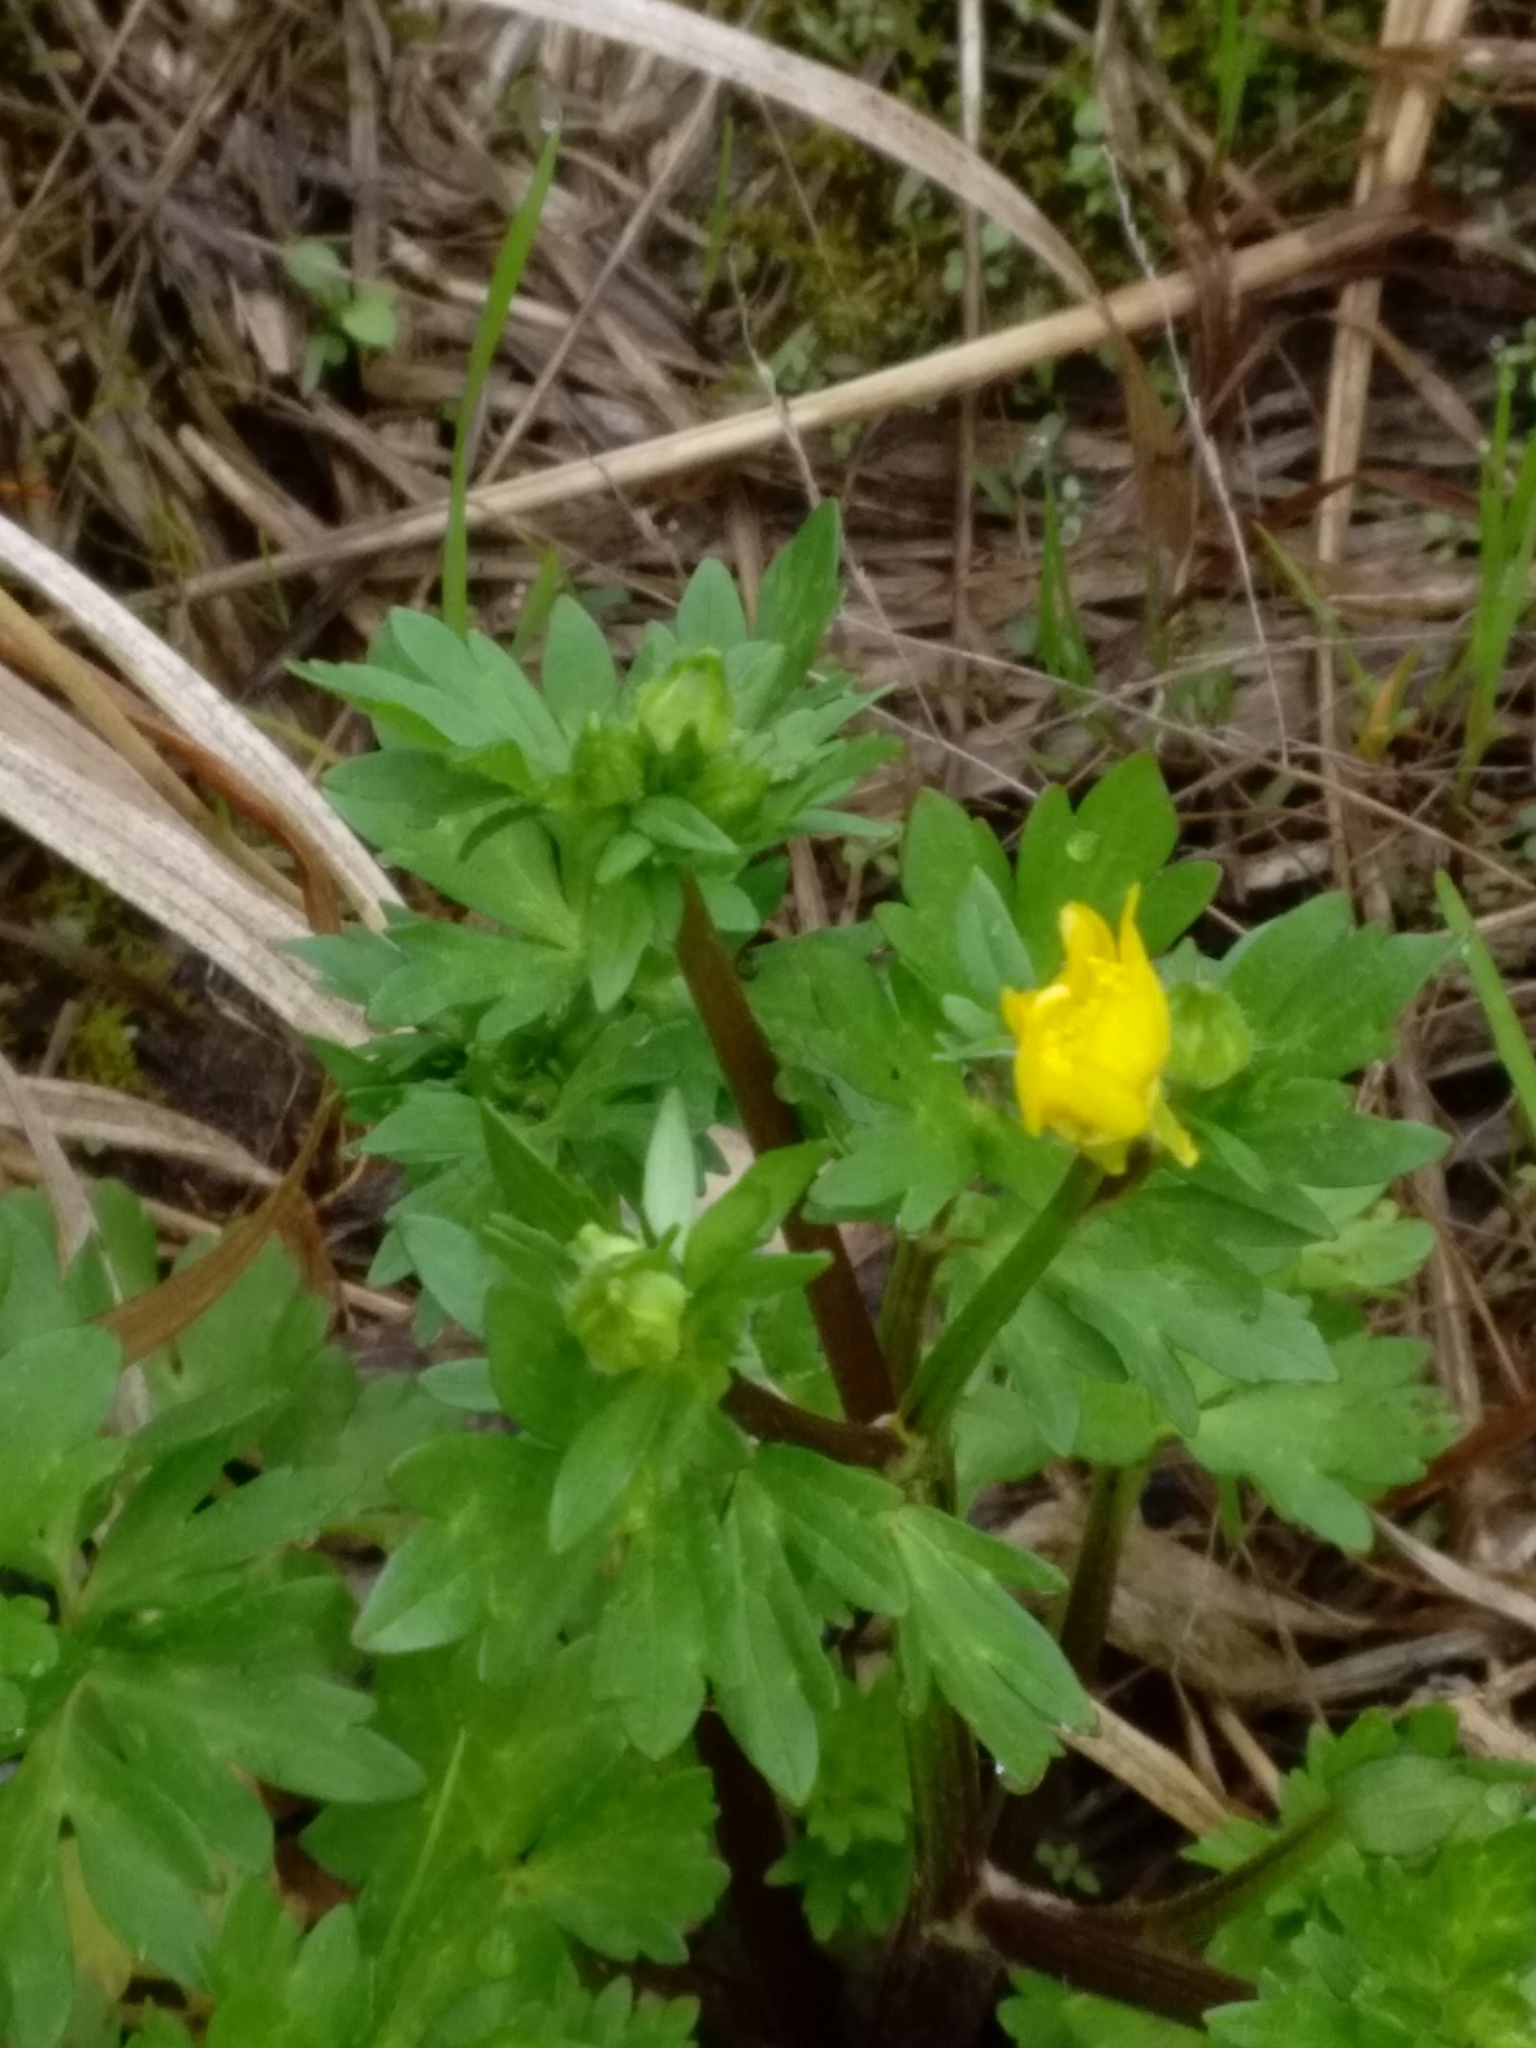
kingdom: Plantae
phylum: Tracheophyta
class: Magnoliopsida
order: Ranunculales
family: Ranunculaceae
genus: Ranunculus
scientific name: Ranunculus muricatus
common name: Rough-fruited buttercup
